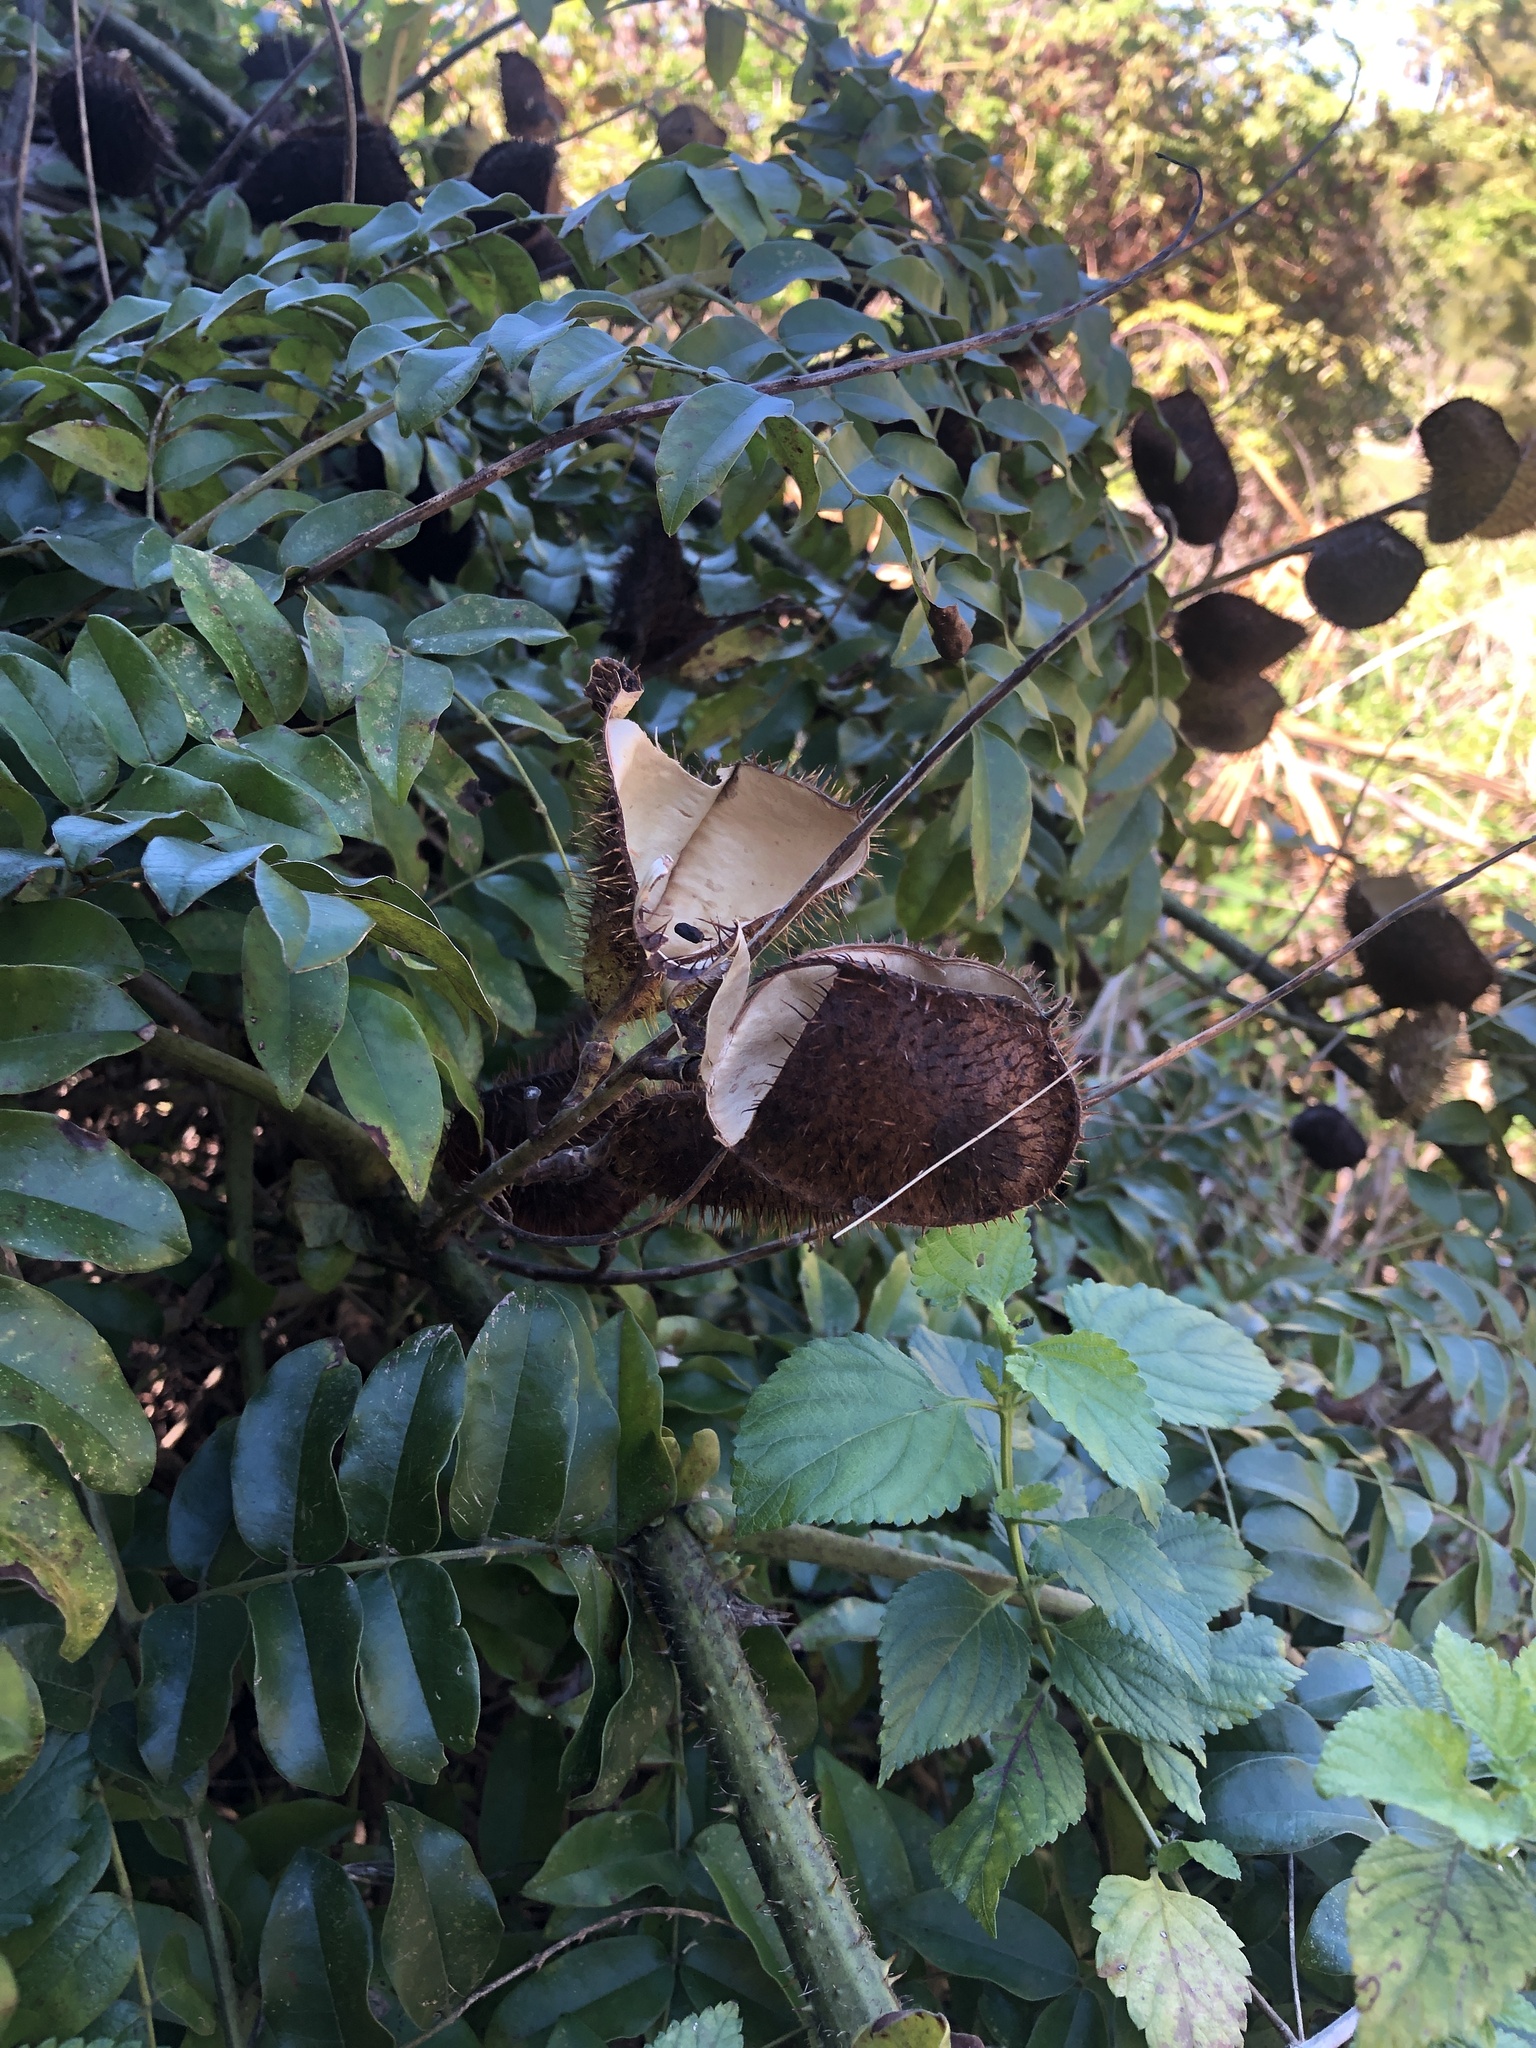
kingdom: Plantae
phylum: Tracheophyta
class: Magnoliopsida
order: Fabales
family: Fabaceae
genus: Guilandina
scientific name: Guilandina bonduc
